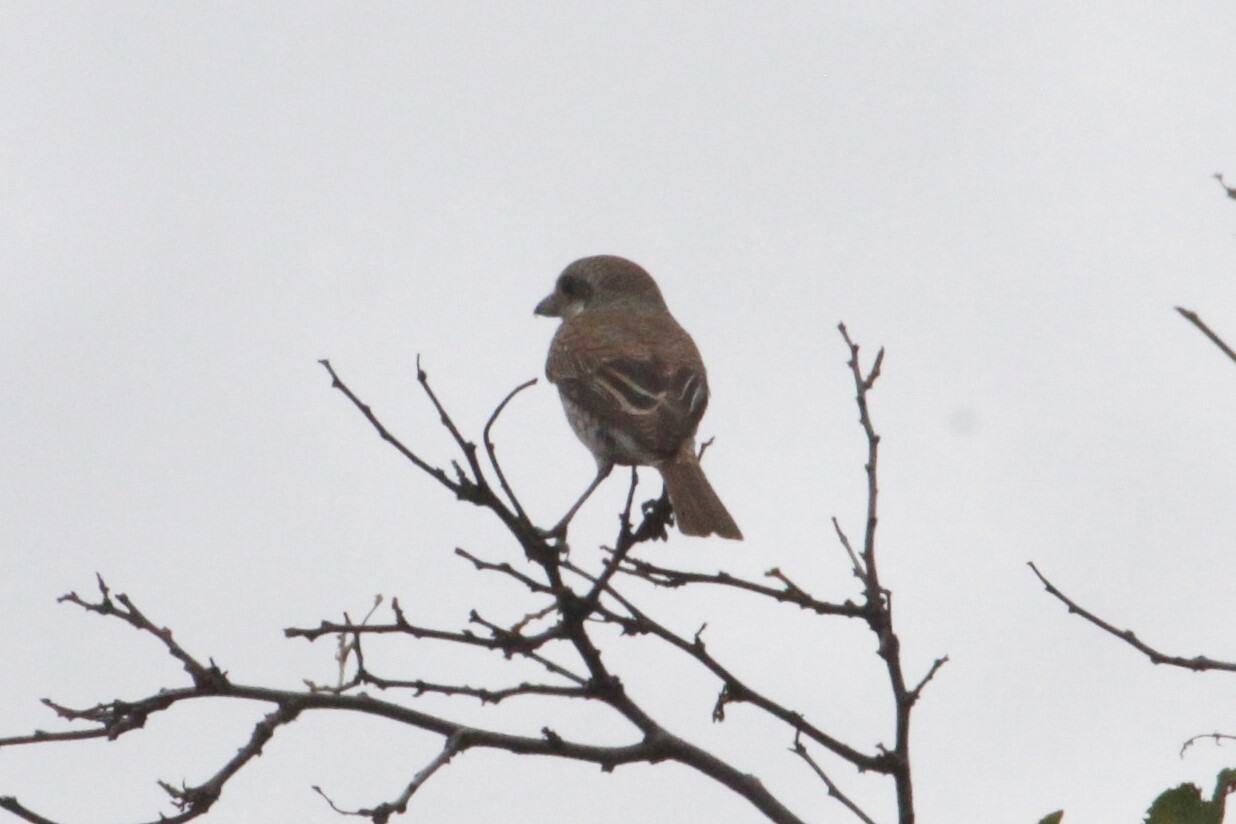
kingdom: Animalia
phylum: Chordata
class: Aves
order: Passeriformes
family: Laniidae
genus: Lanius
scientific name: Lanius collurio
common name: Red-backed shrike
